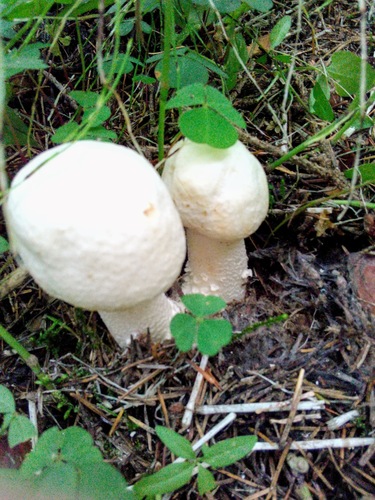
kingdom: Fungi
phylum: Basidiomycota
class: Agaricomycetes
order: Agaricales
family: Agaricaceae
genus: Agaricus
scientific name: Agaricus xanthodermus
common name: Yellow stainer
